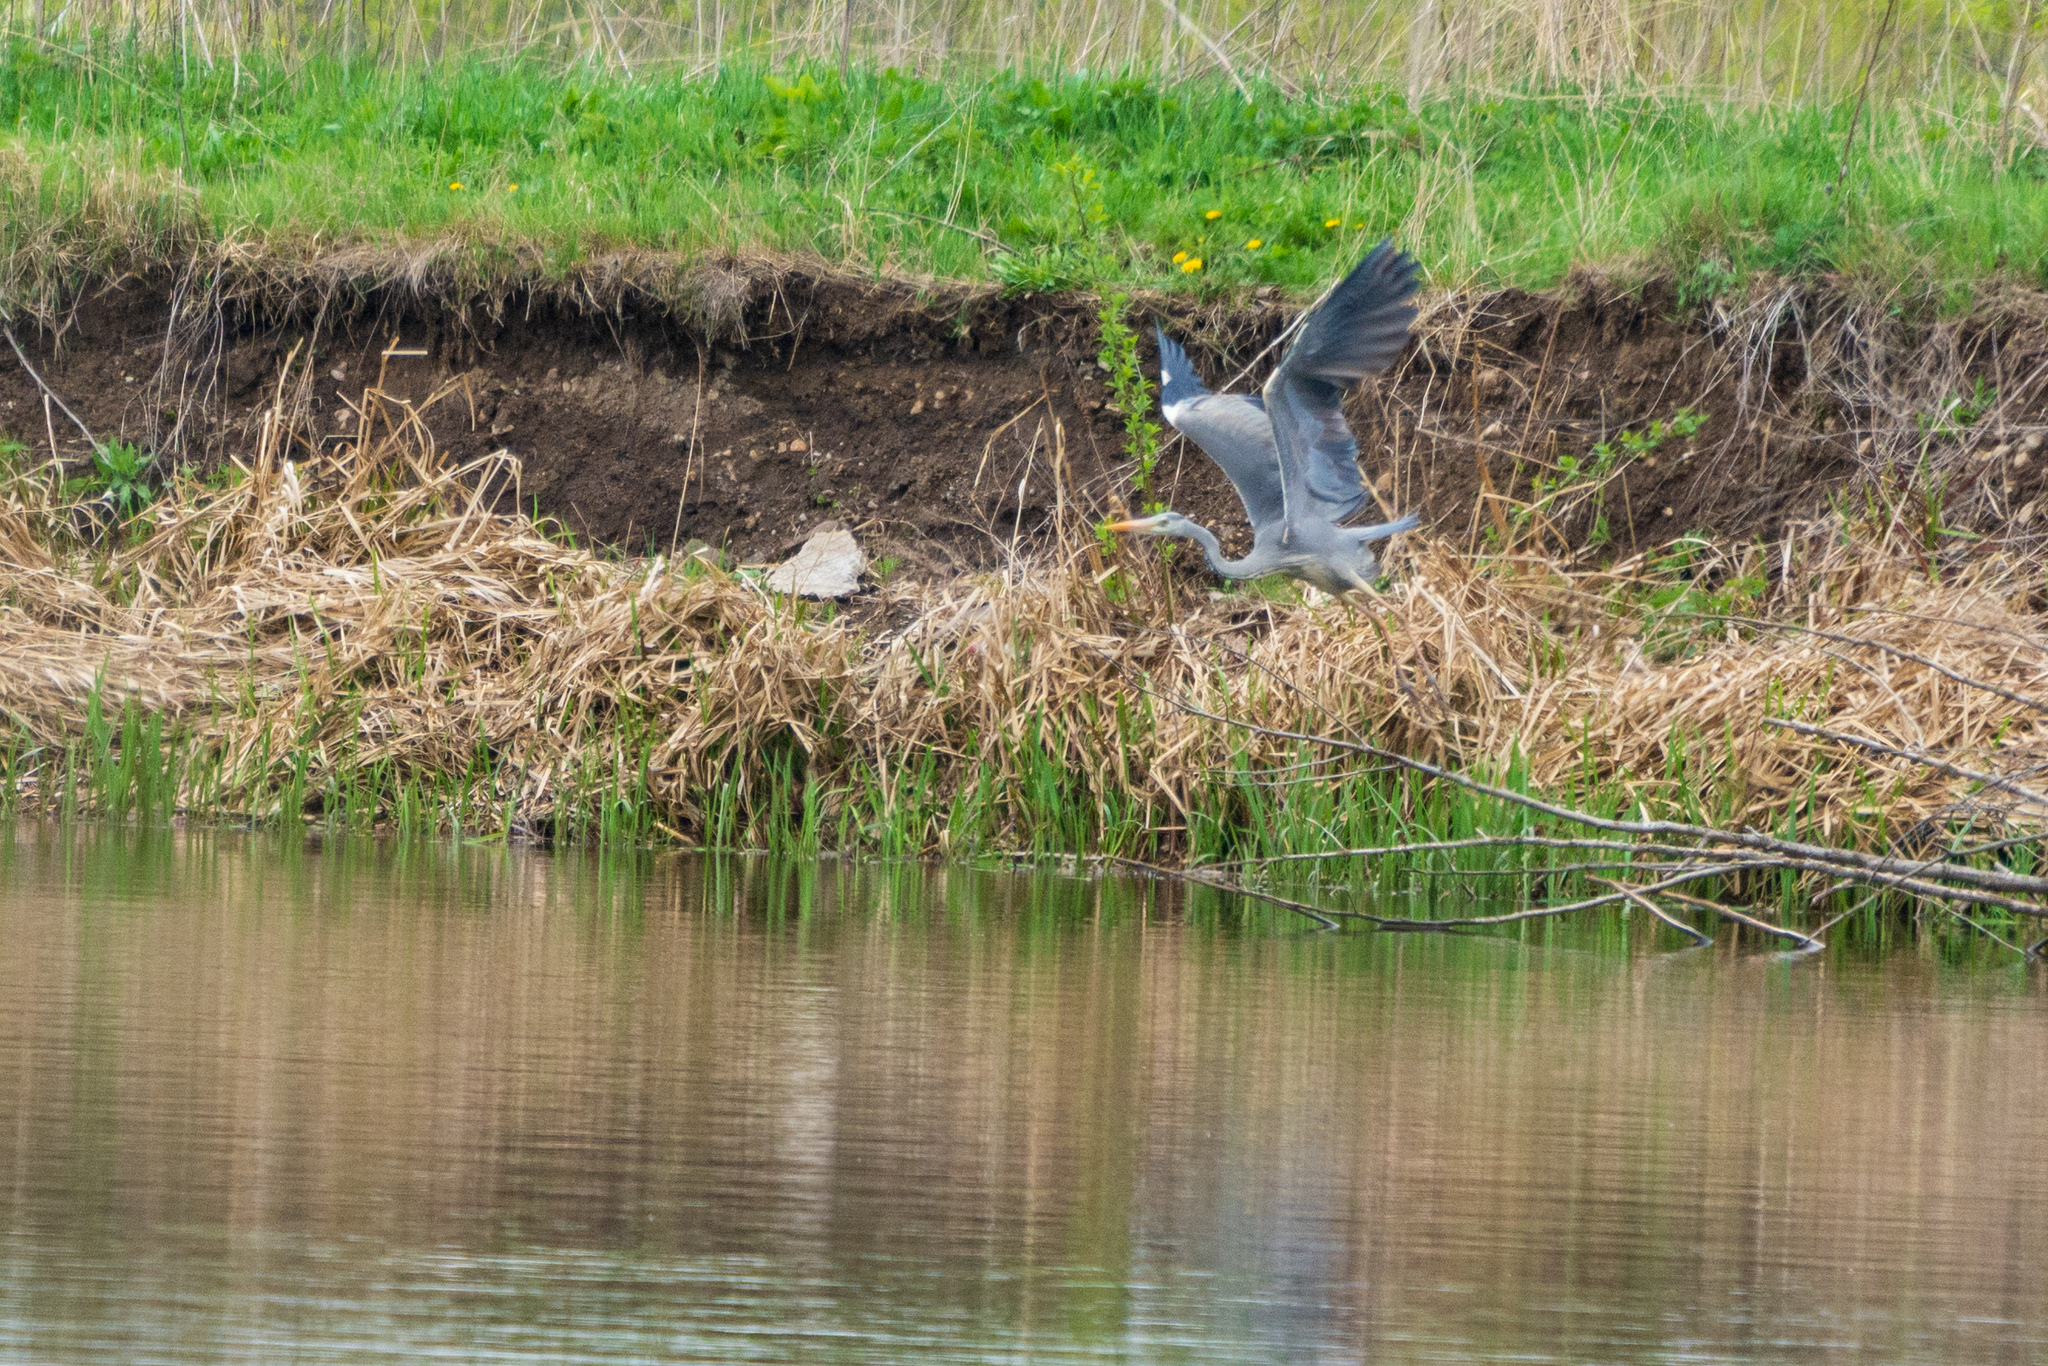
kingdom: Animalia
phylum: Chordata
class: Aves
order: Pelecaniformes
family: Ardeidae
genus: Ardea
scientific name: Ardea cinerea
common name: Grey heron
